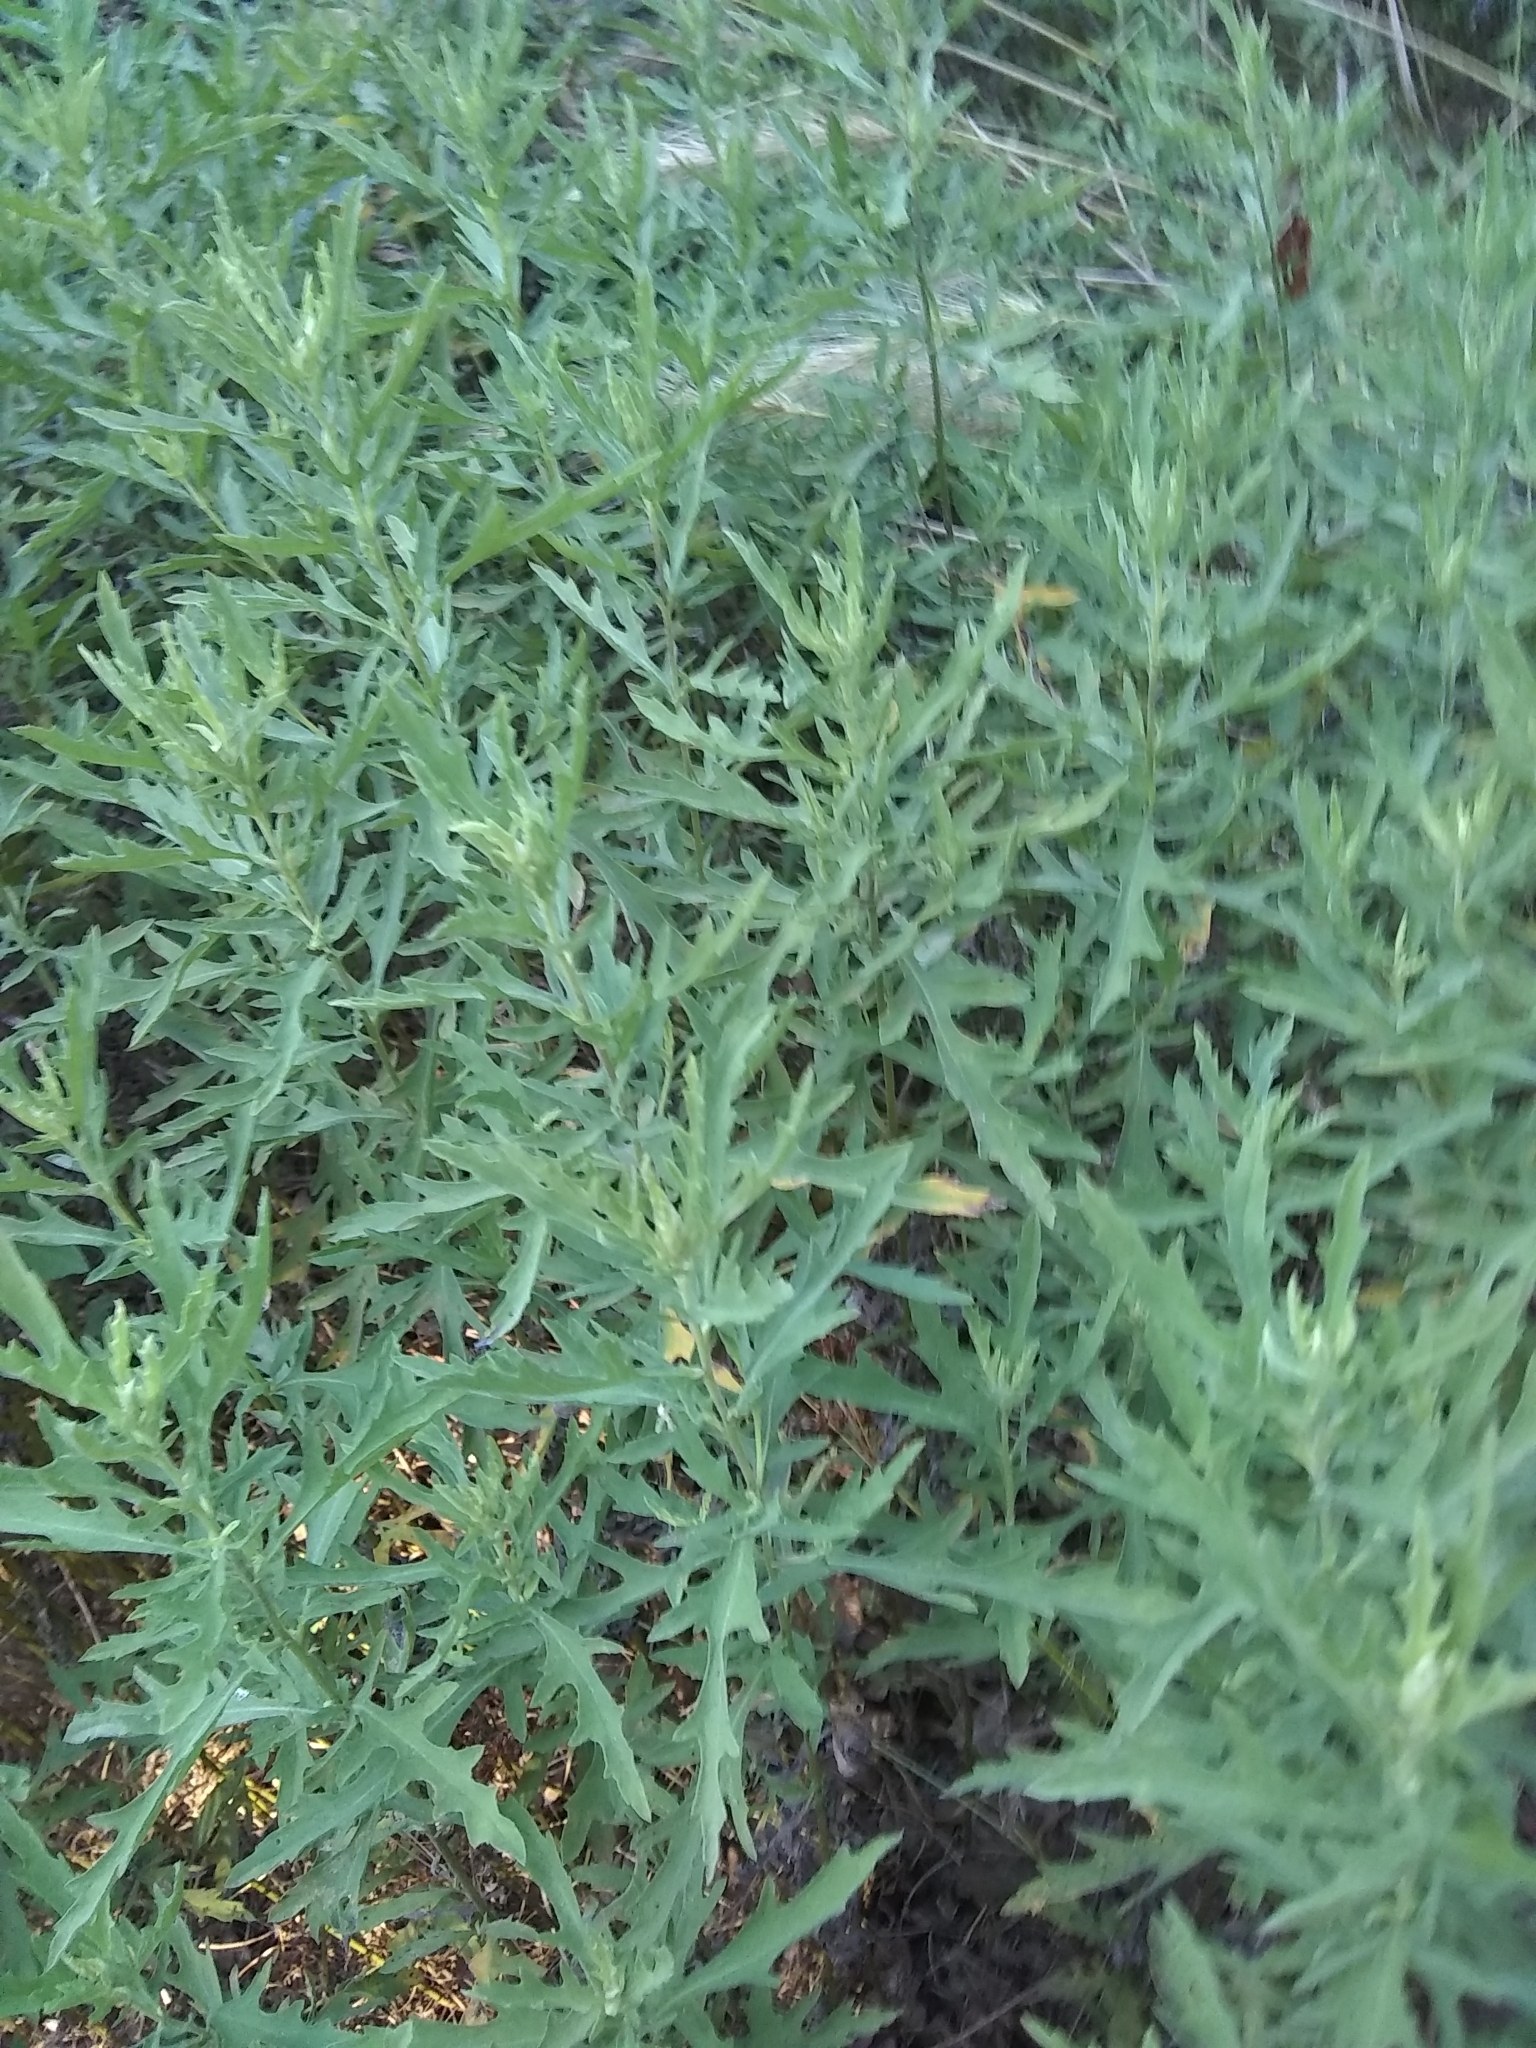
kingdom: Plantae
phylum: Tracheophyta
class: Magnoliopsida
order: Asterales
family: Asteraceae
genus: Ambrosia
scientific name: Ambrosia psilostachya
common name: Perennial ragweed
